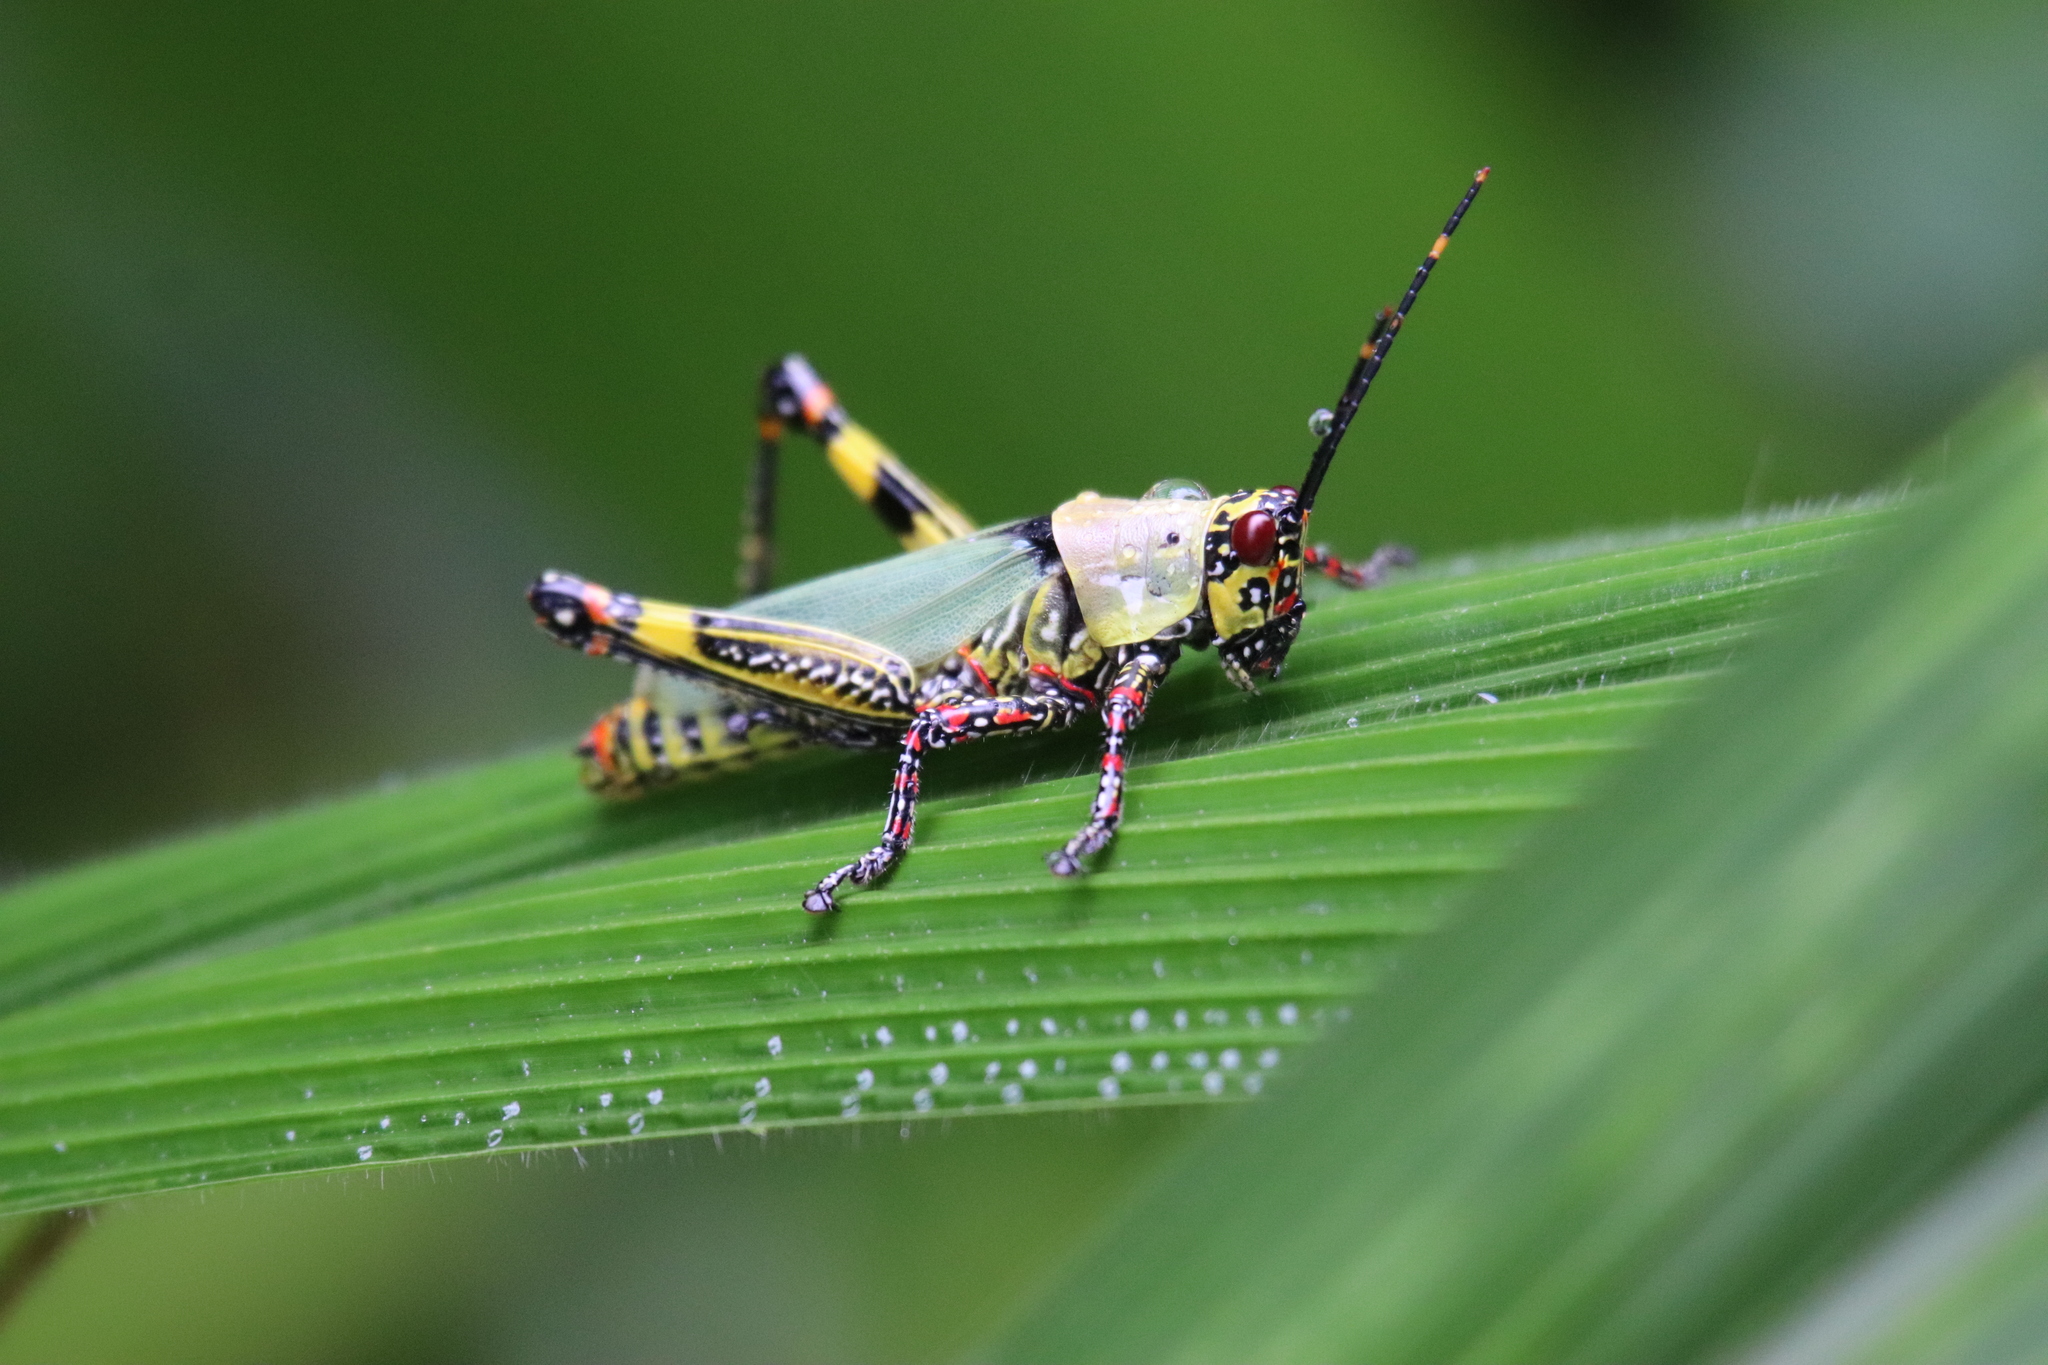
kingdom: Animalia
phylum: Arthropoda
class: Insecta
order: Orthoptera
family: Pyrgomorphidae
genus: Zonocerus
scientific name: Zonocerus variegatus
